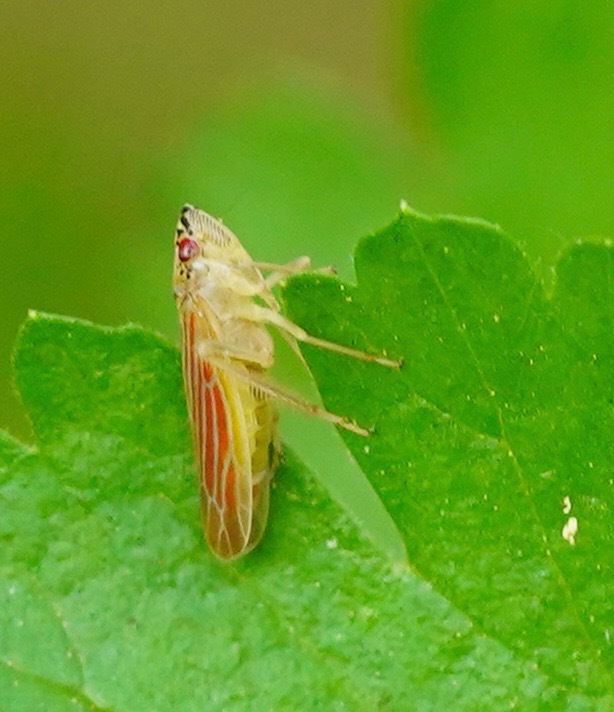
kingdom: Animalia
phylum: Arthropoda
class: Insecta
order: Hemiptera
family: Cicadellidae
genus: Pagaronia
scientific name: Pagaronia triunata
